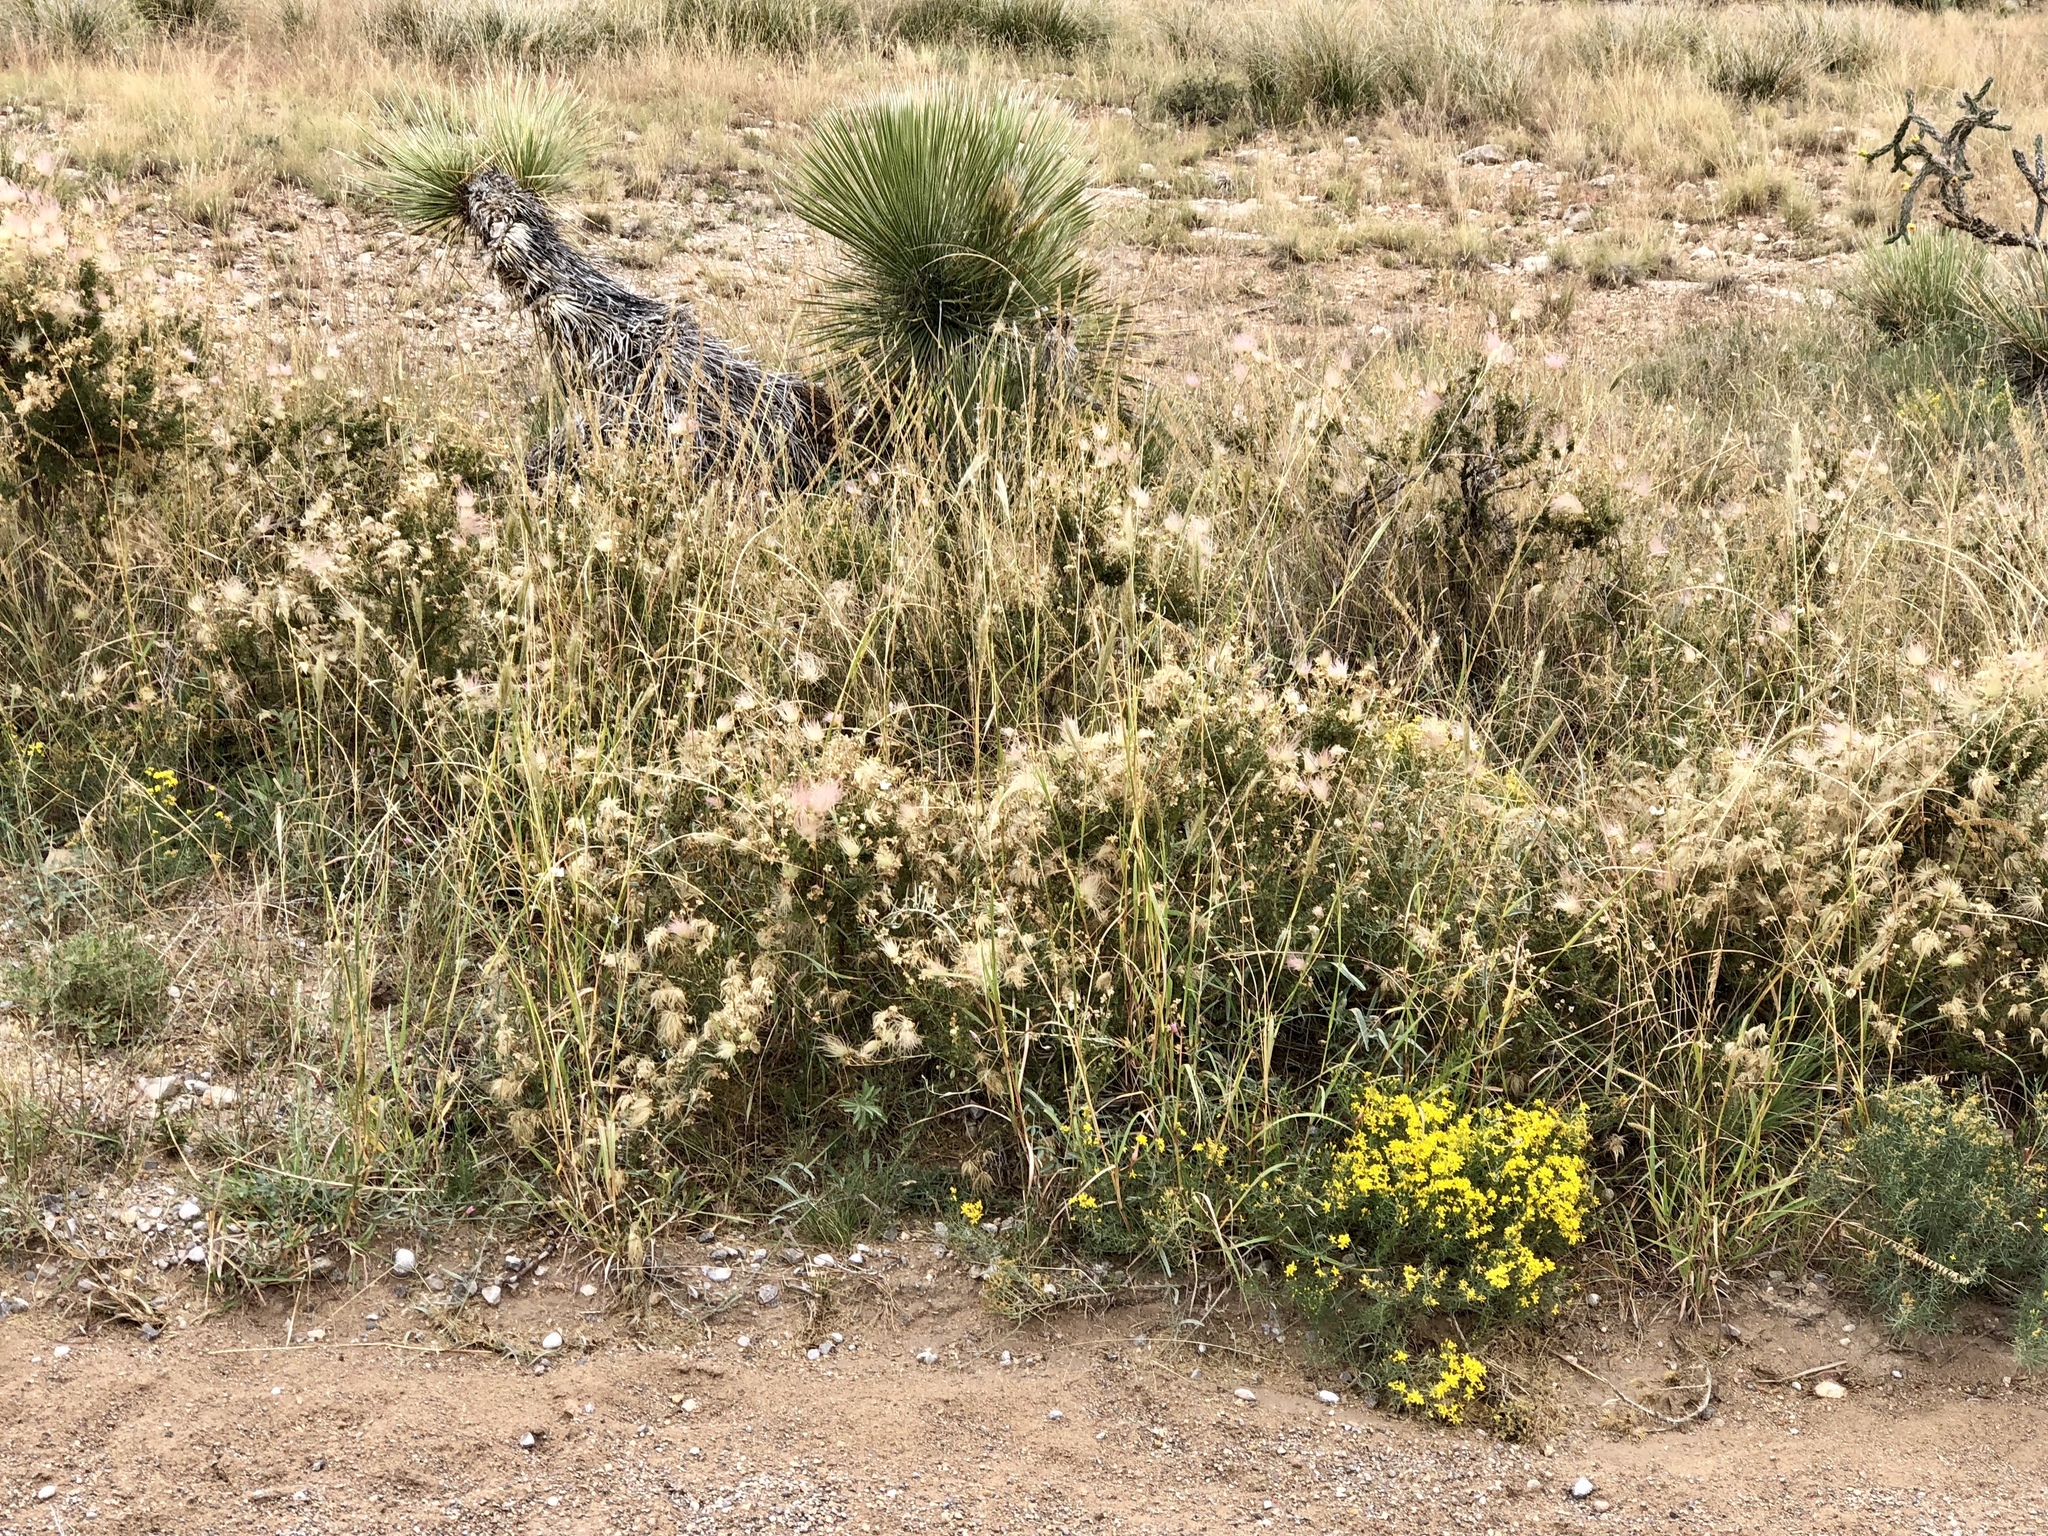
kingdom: Plantae
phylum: Tracheophyta
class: Magnoliopsida
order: Rosales
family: Rosaceae
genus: Fallugia
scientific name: Fallugia paradoxa
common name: Apache-plume
